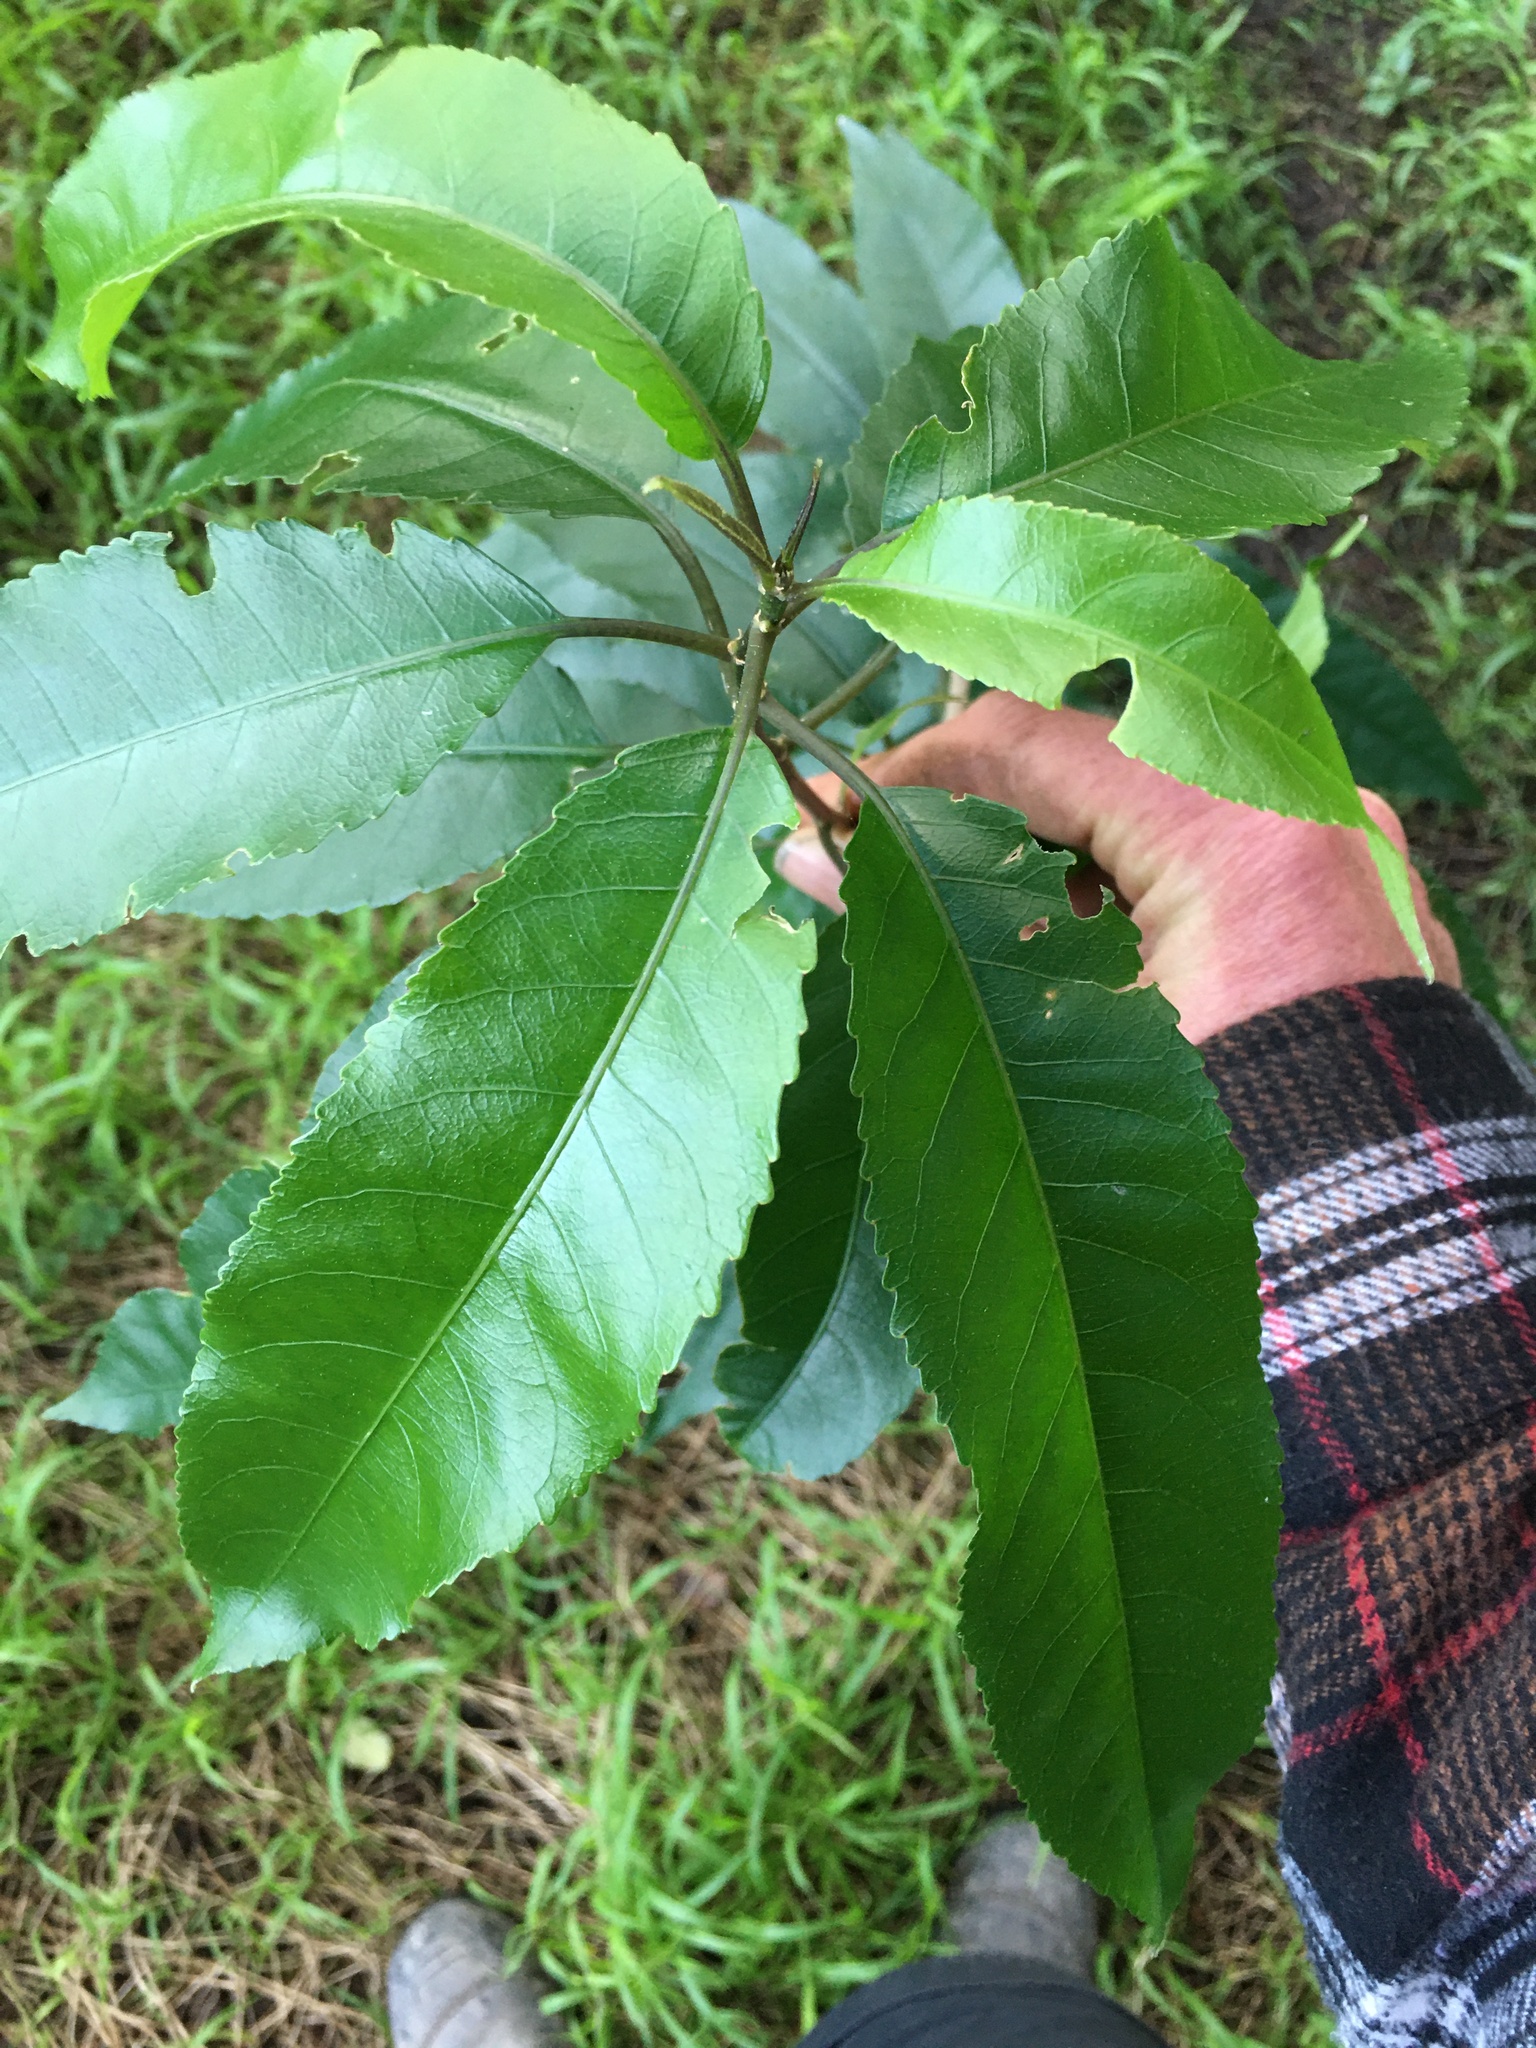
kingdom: Plantae
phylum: Tracheophyta
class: Magnoliopsida
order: Malpighiales
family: Violaceae
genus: Melicytus
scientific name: Melicytus ramiflorus
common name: Mahoe
